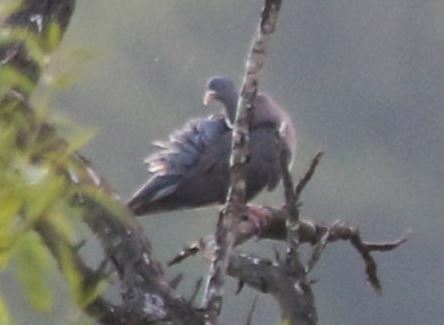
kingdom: Animalia
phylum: Chordata
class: Aves
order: Columbiformes
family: Columbidae
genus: Columba
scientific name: Columba palumbus
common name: Common wood pigeon
